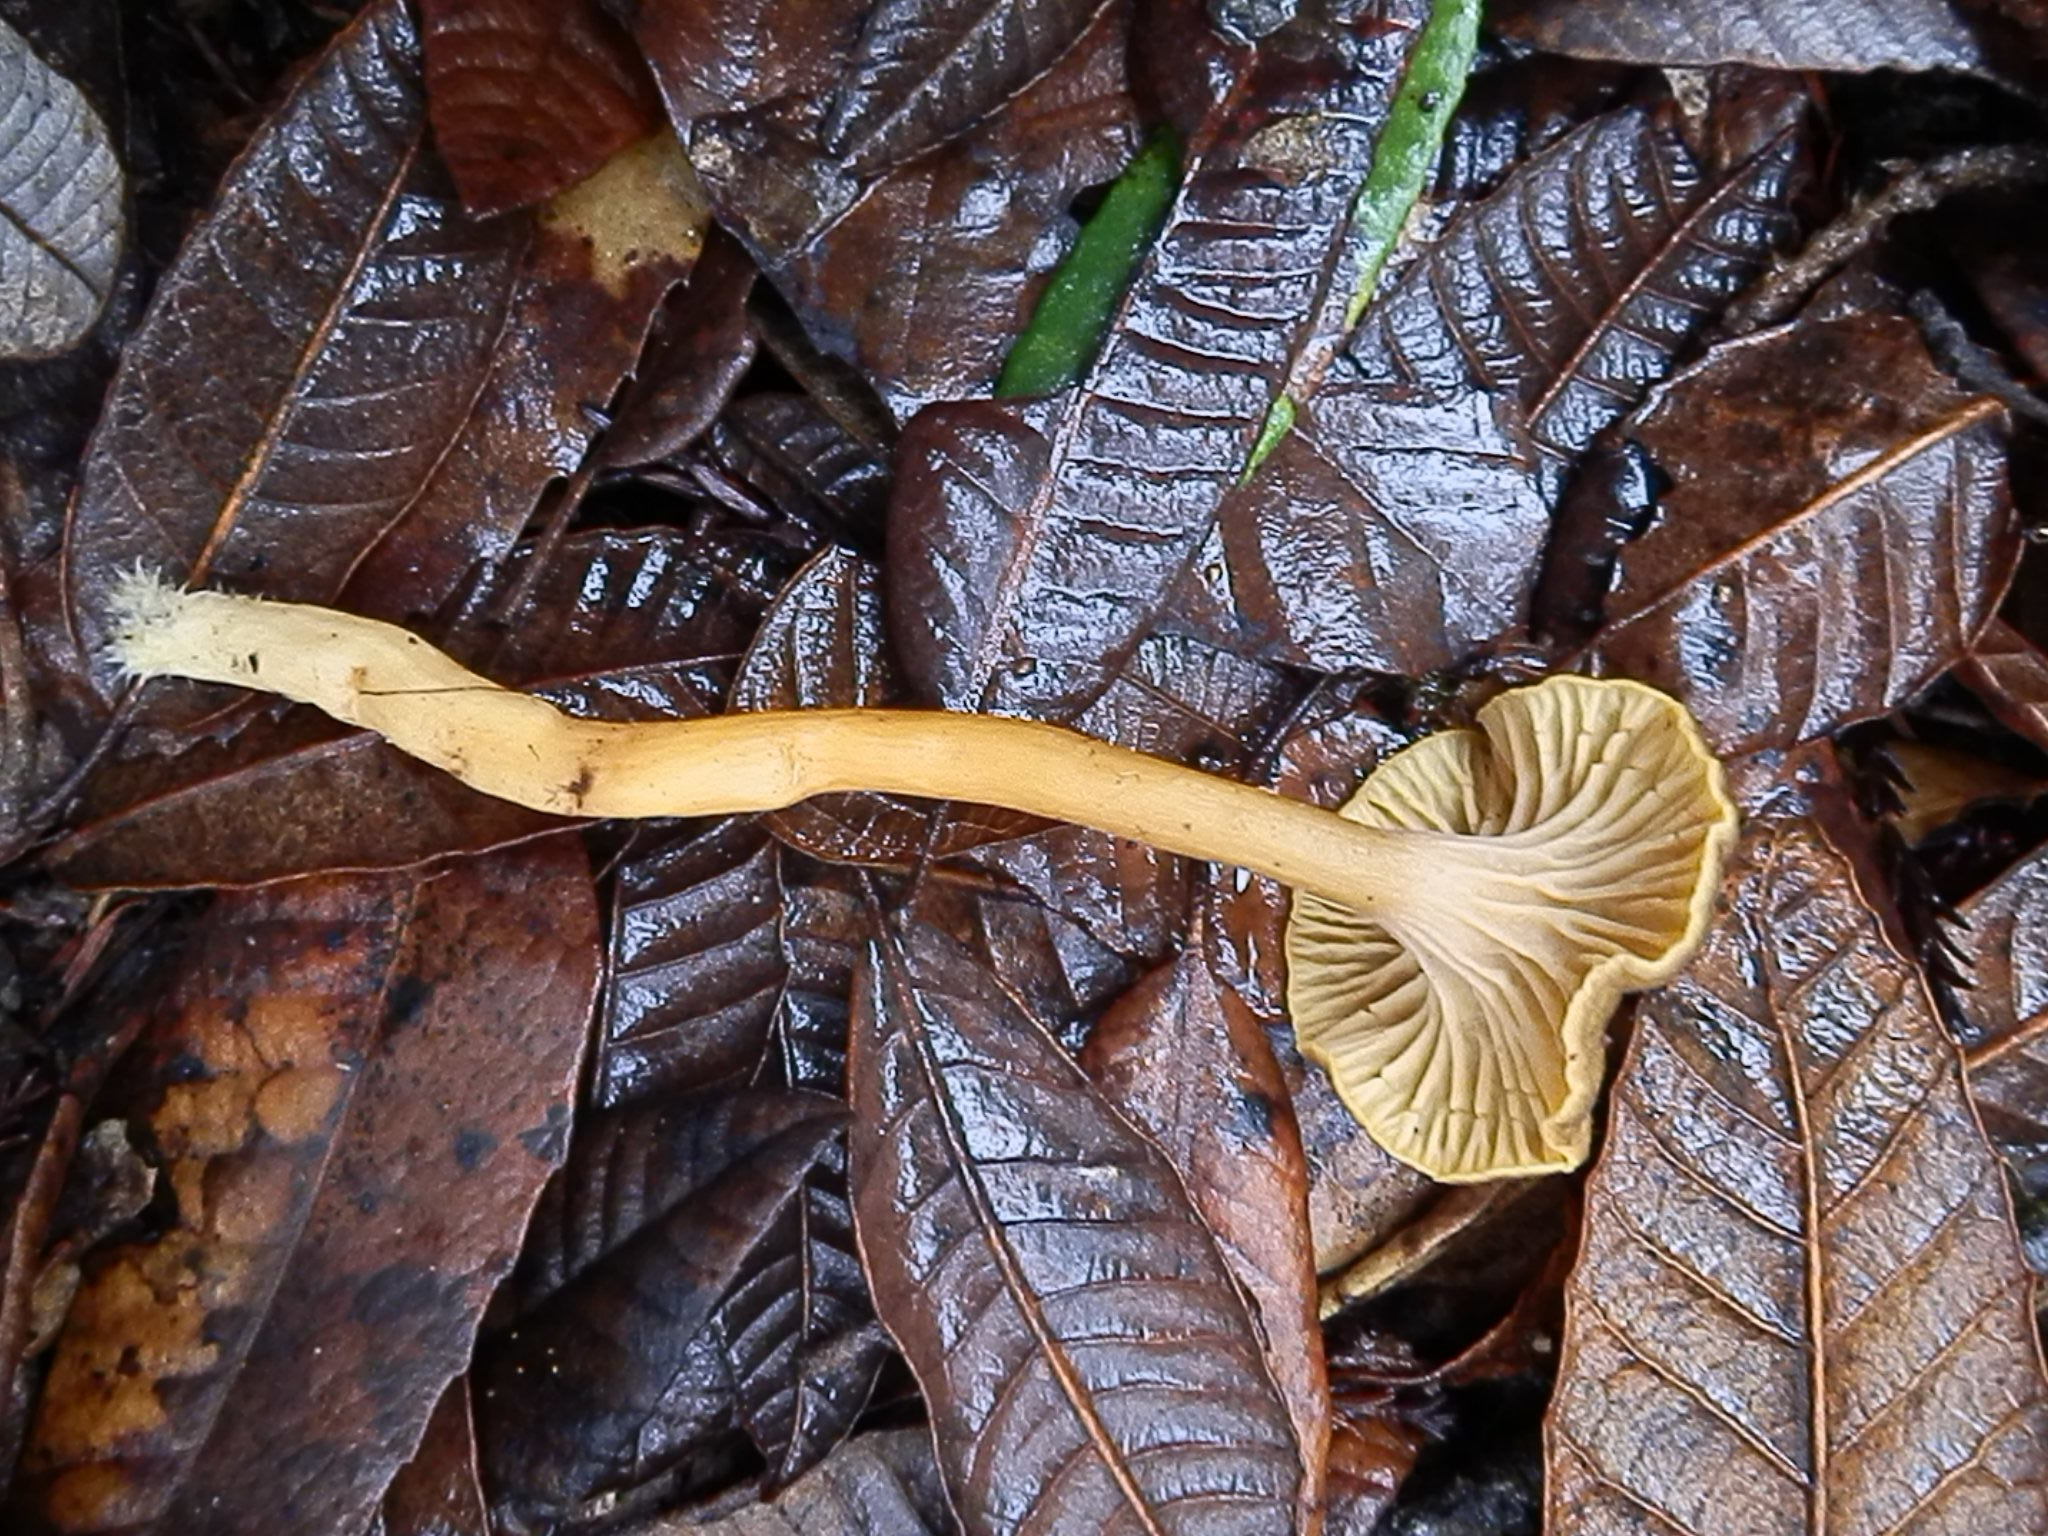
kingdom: Fungi
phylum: Basidiomycota
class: Agaricomycetes
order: Cantharellales
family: Hydnaceae
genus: Craterellus
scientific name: Craterellus tubaeformis
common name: Yellowfoot
